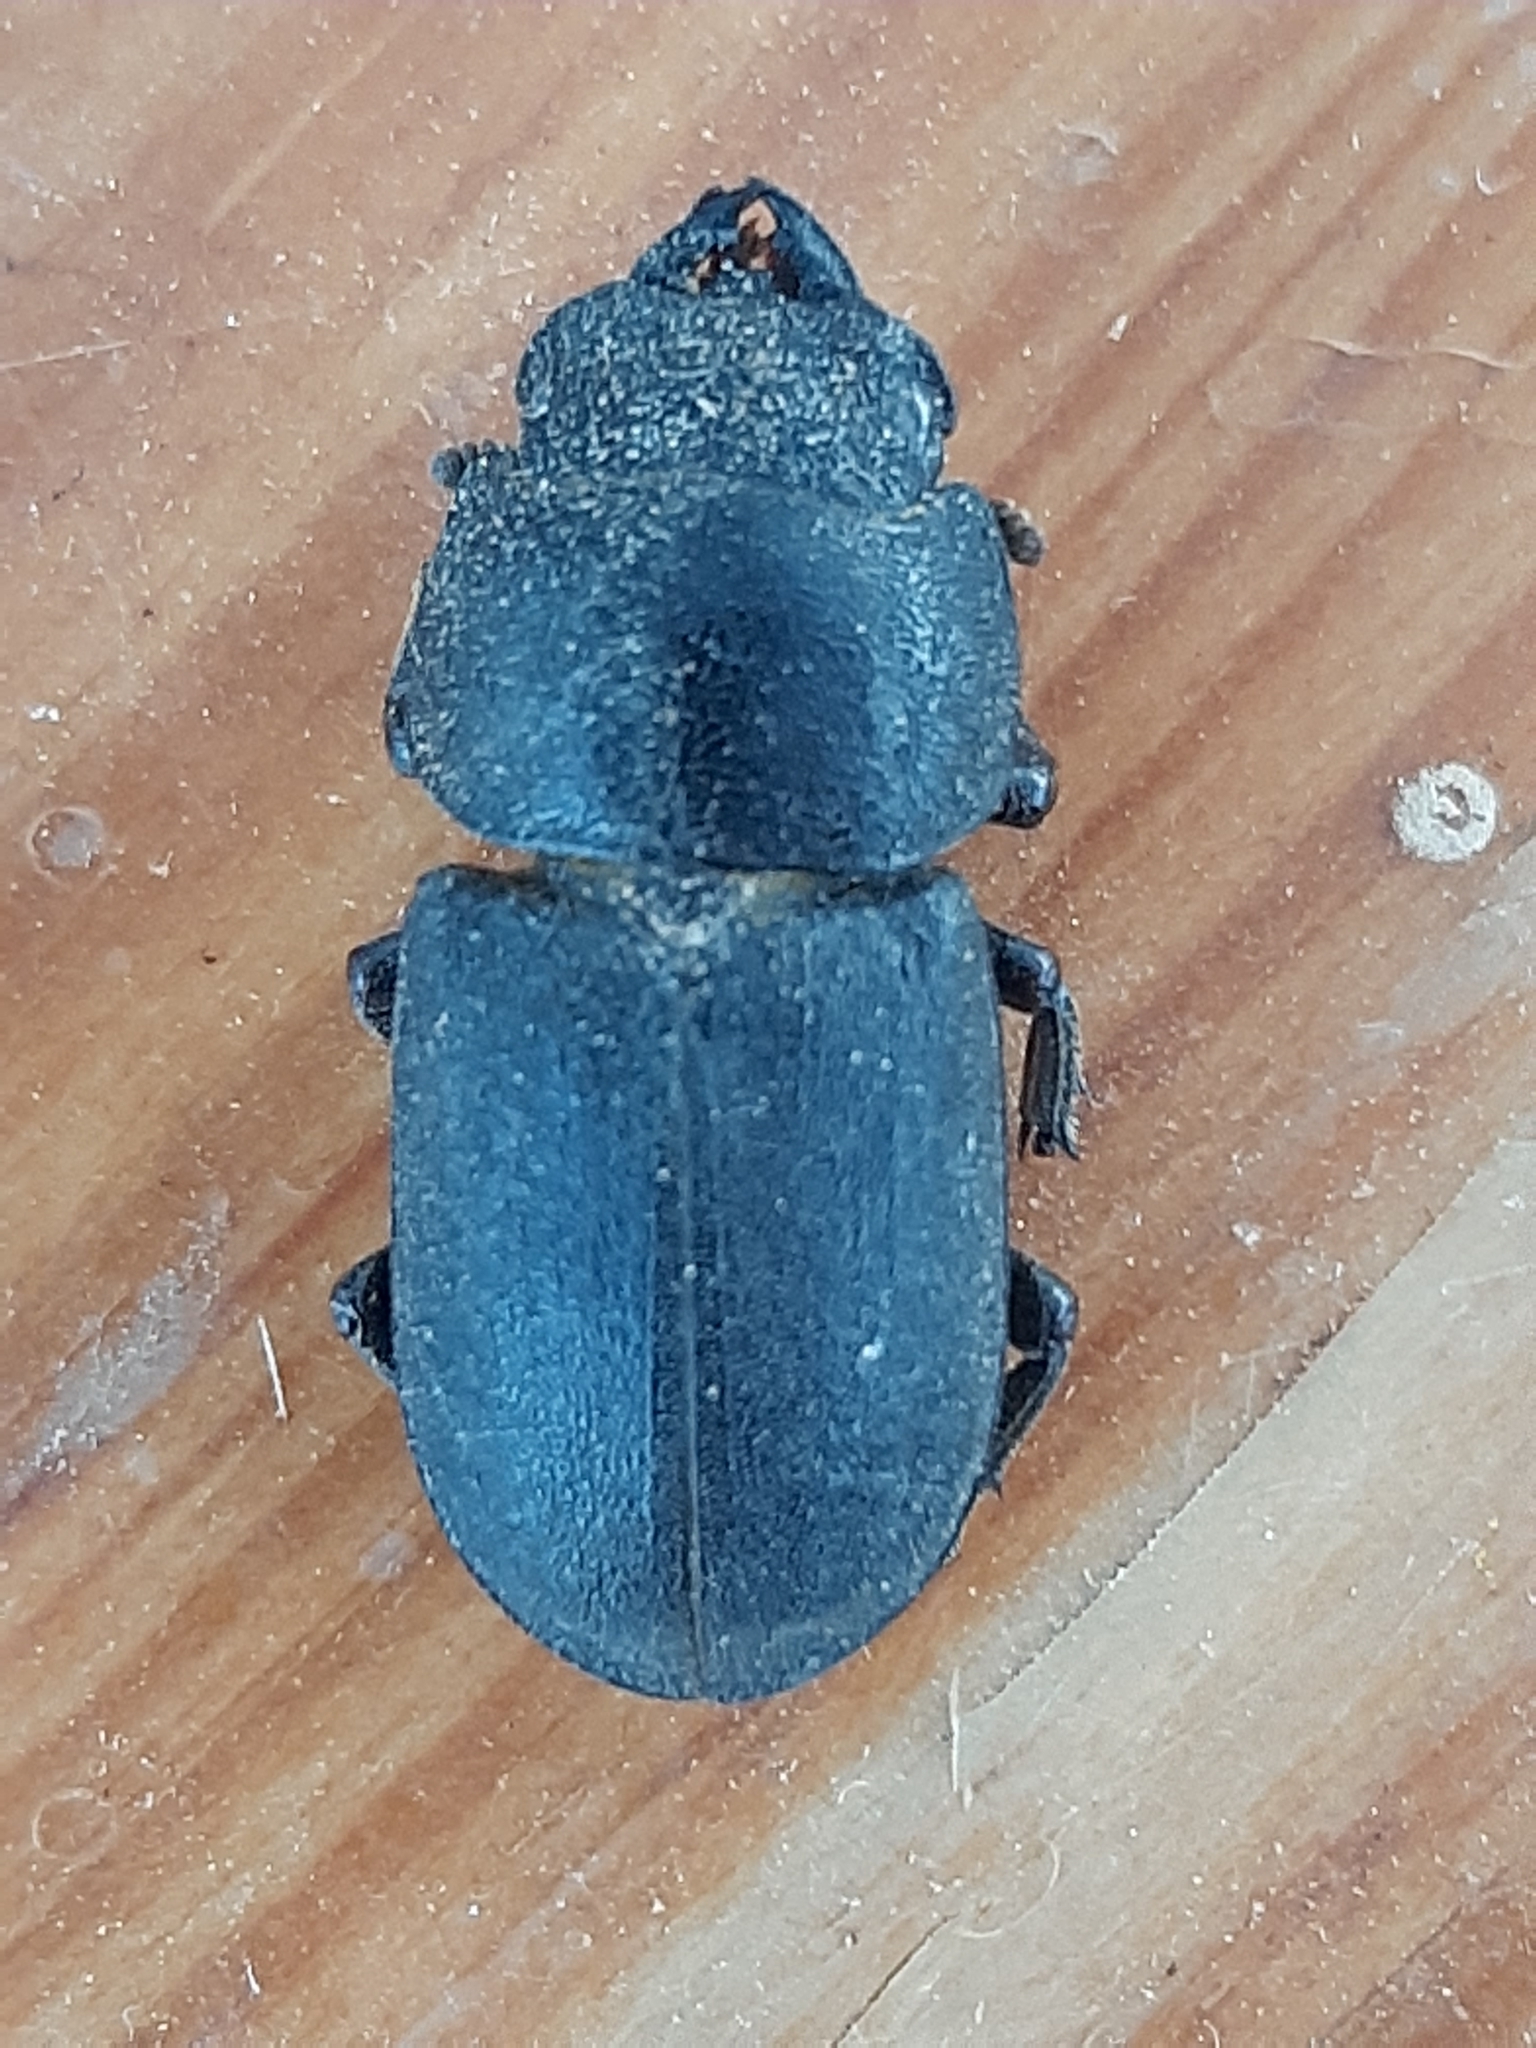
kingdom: Animalia
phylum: Arthropoda
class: Insecta
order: Coleoptera
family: Lucanidae
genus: Dorcus
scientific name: Dorcus parallelipipedus
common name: Lesser stag beetle
